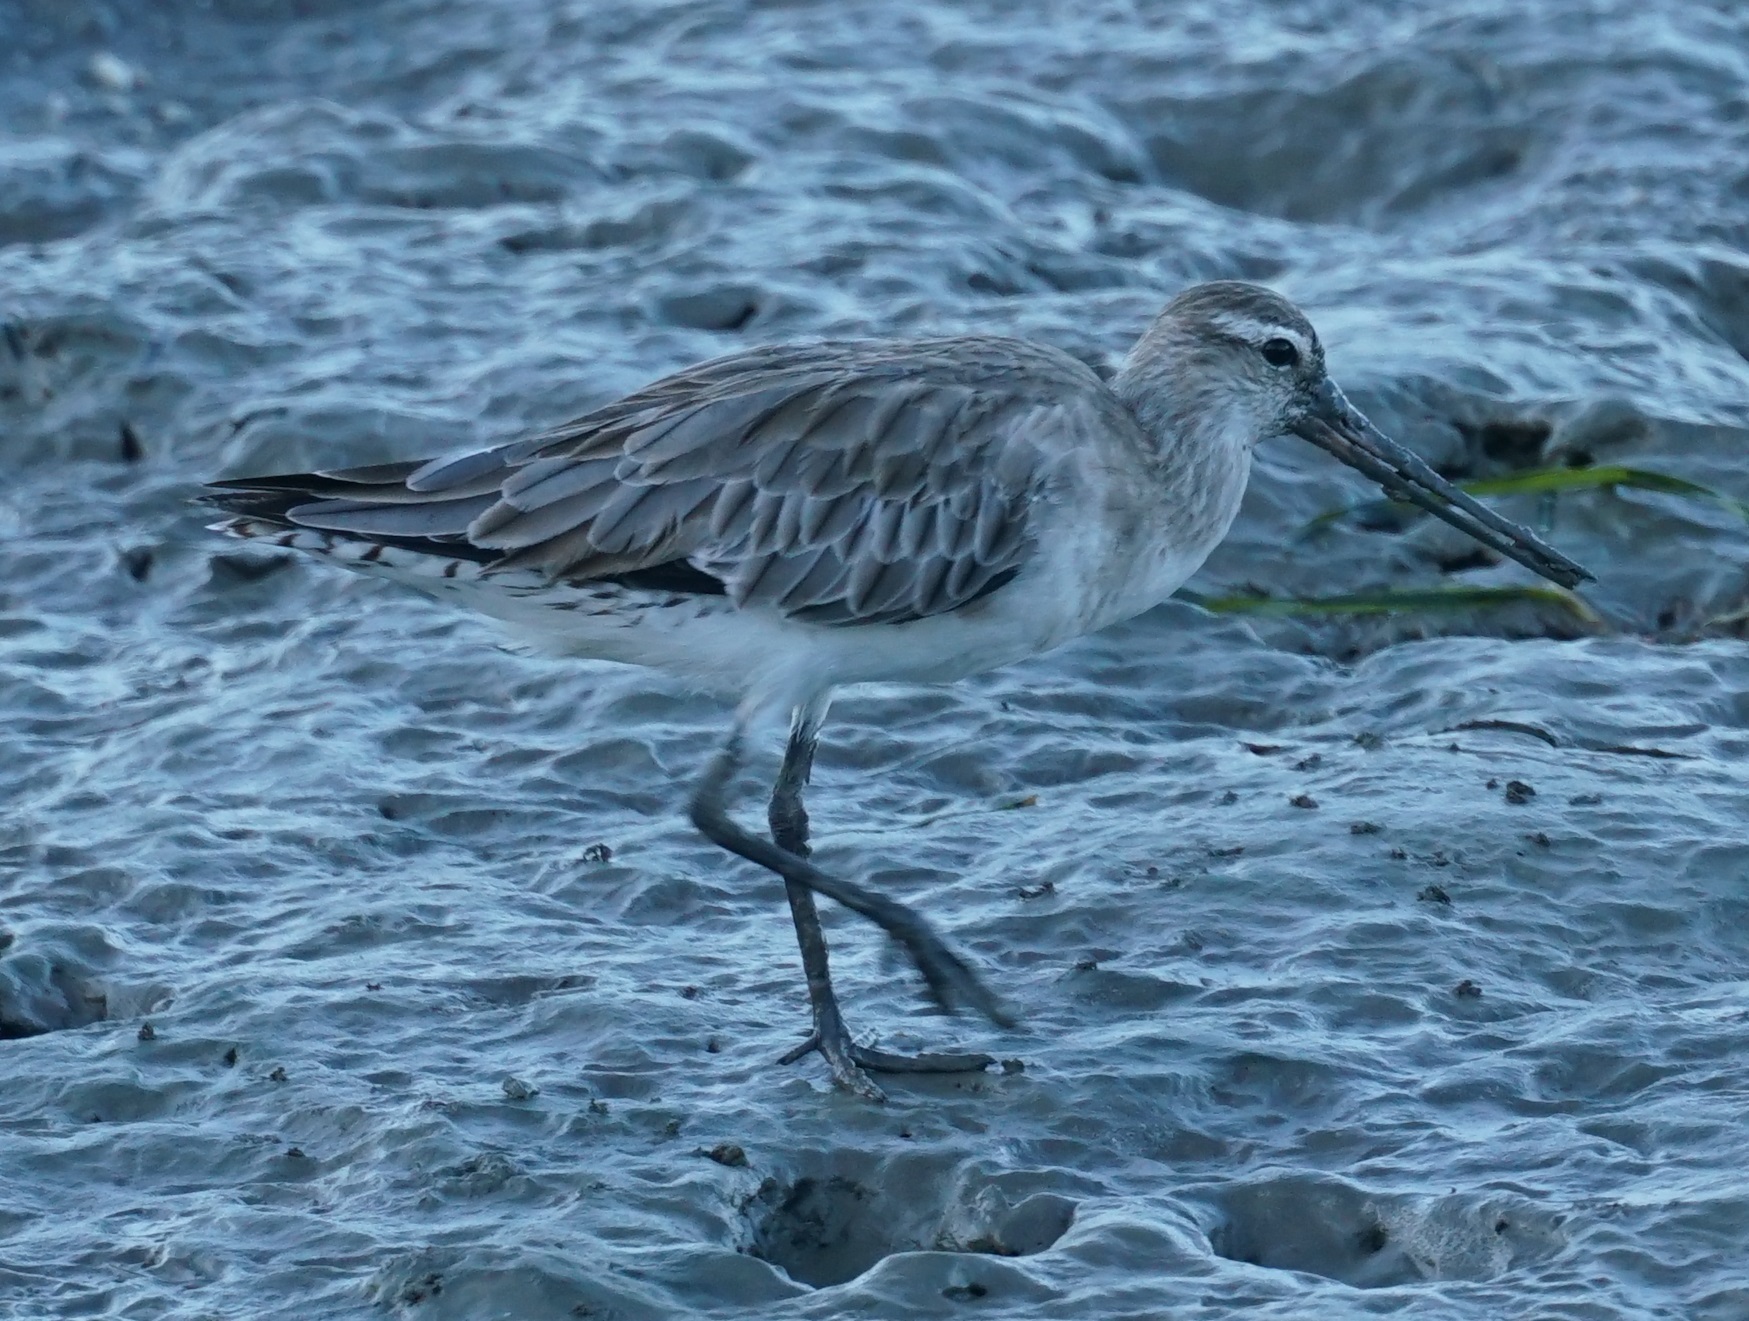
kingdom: Animalia
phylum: Chordata
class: Aves
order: Charadriiformes
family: Scolopacidae
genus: Limosa
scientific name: Limosa lapponica
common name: Bar-tailed godwit
